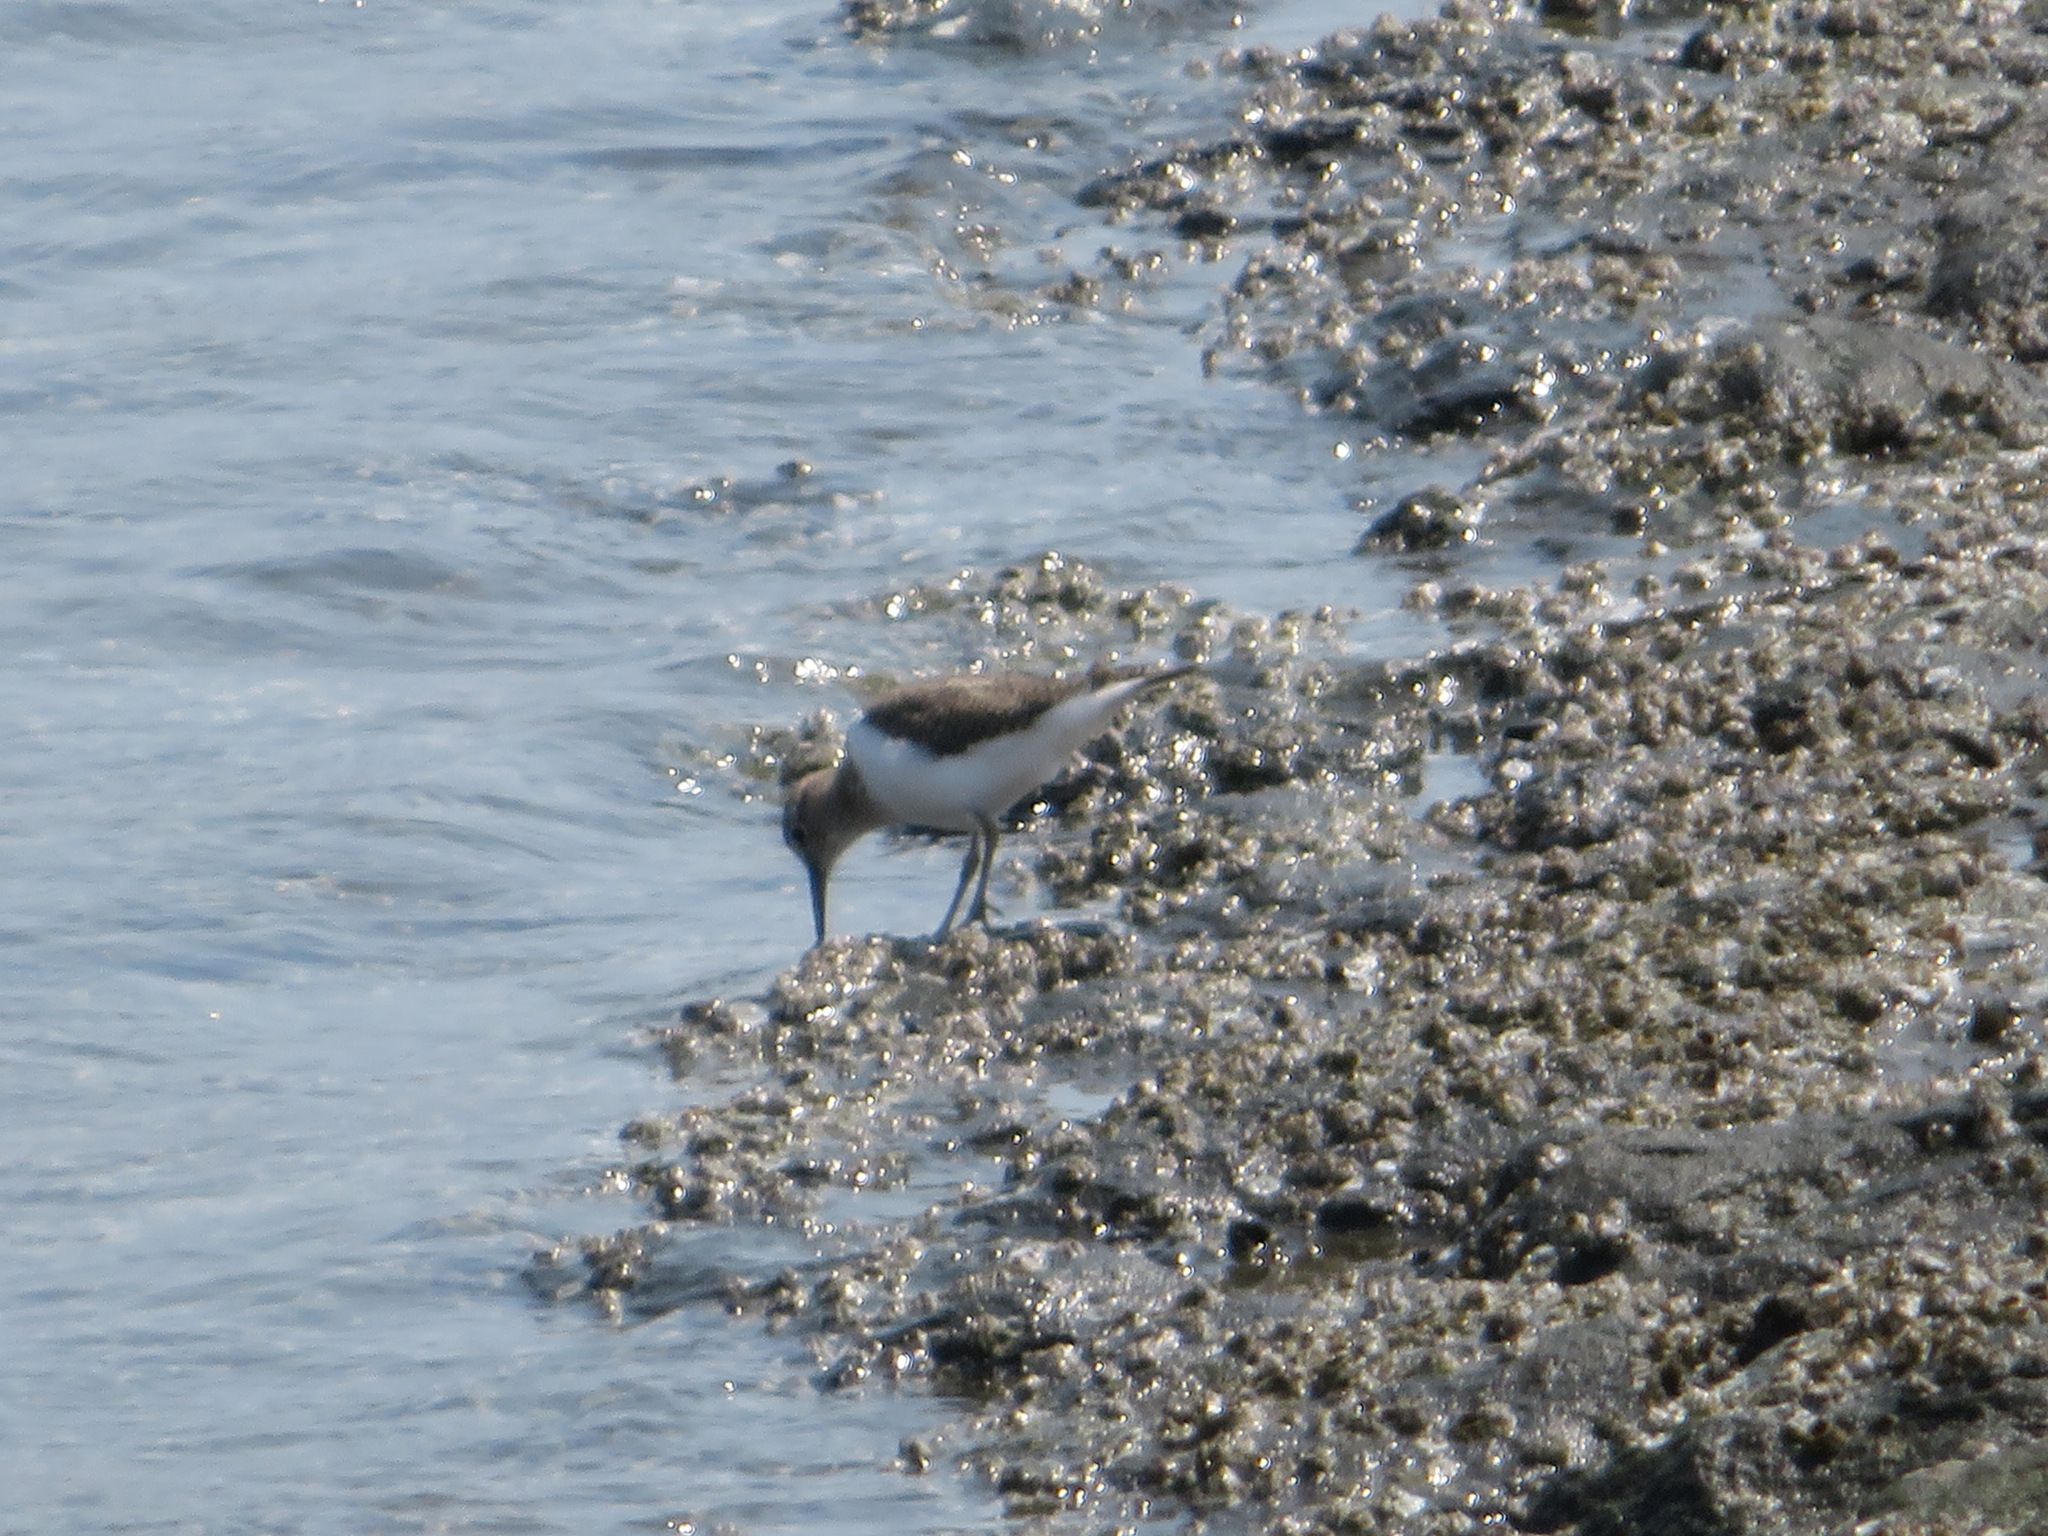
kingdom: Animalia
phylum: Chordata
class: Aves
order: Charadriiformes
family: Scolopacidae
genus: Actitis
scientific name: Actitis hypoleucos
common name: Common sandpiper
